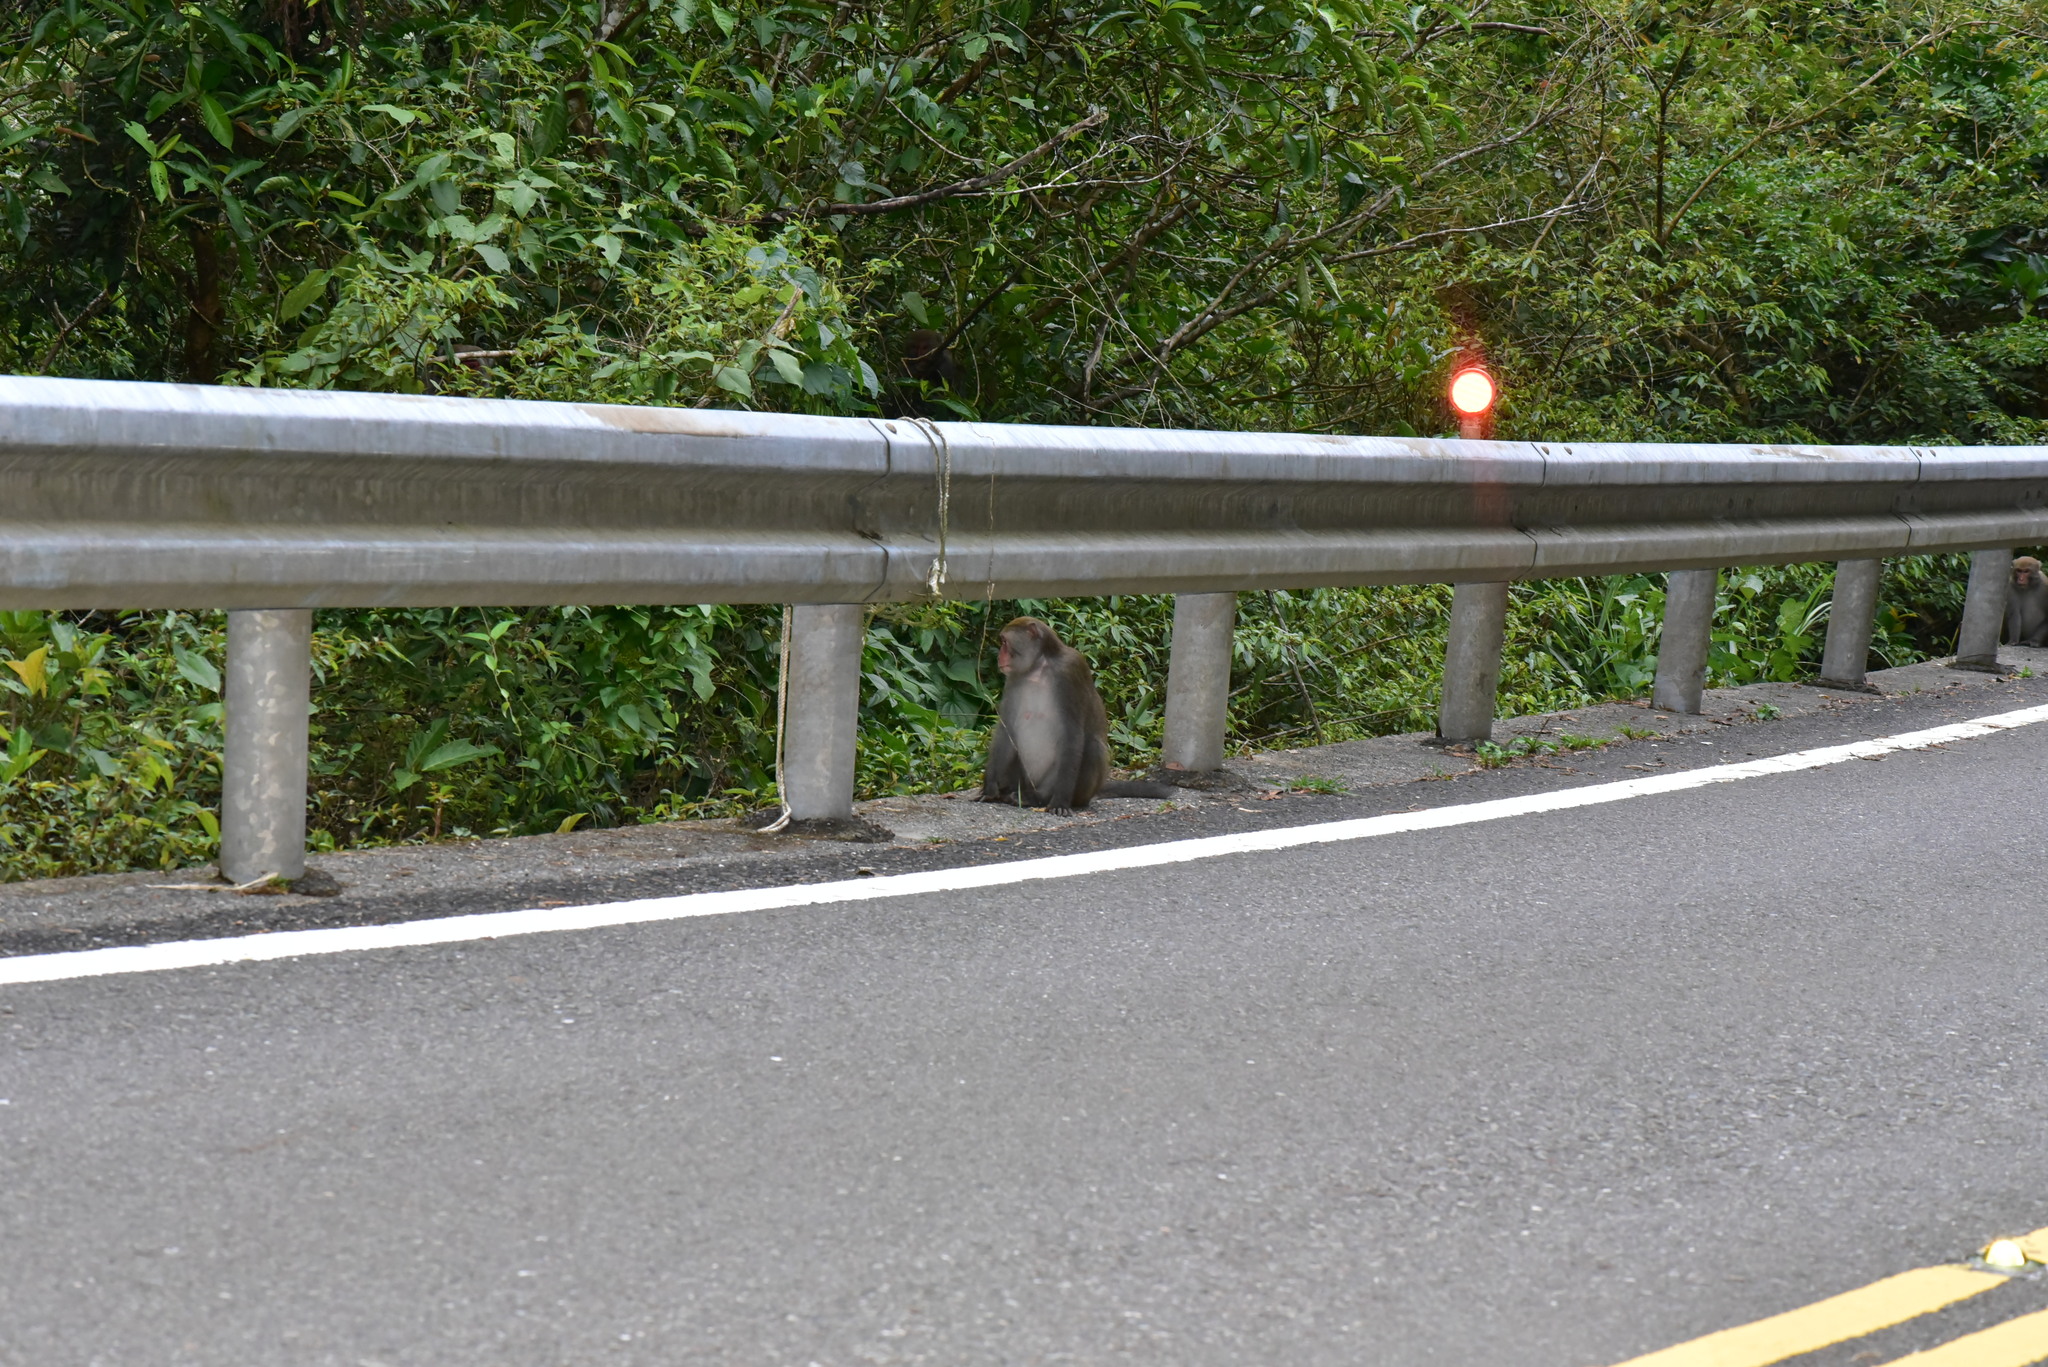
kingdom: Animalia
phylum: Chordata
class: Mammalia
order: Primates
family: Cercopithecidae
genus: Macaca
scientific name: Macaca cyclopis
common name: Formosan rock macaque
